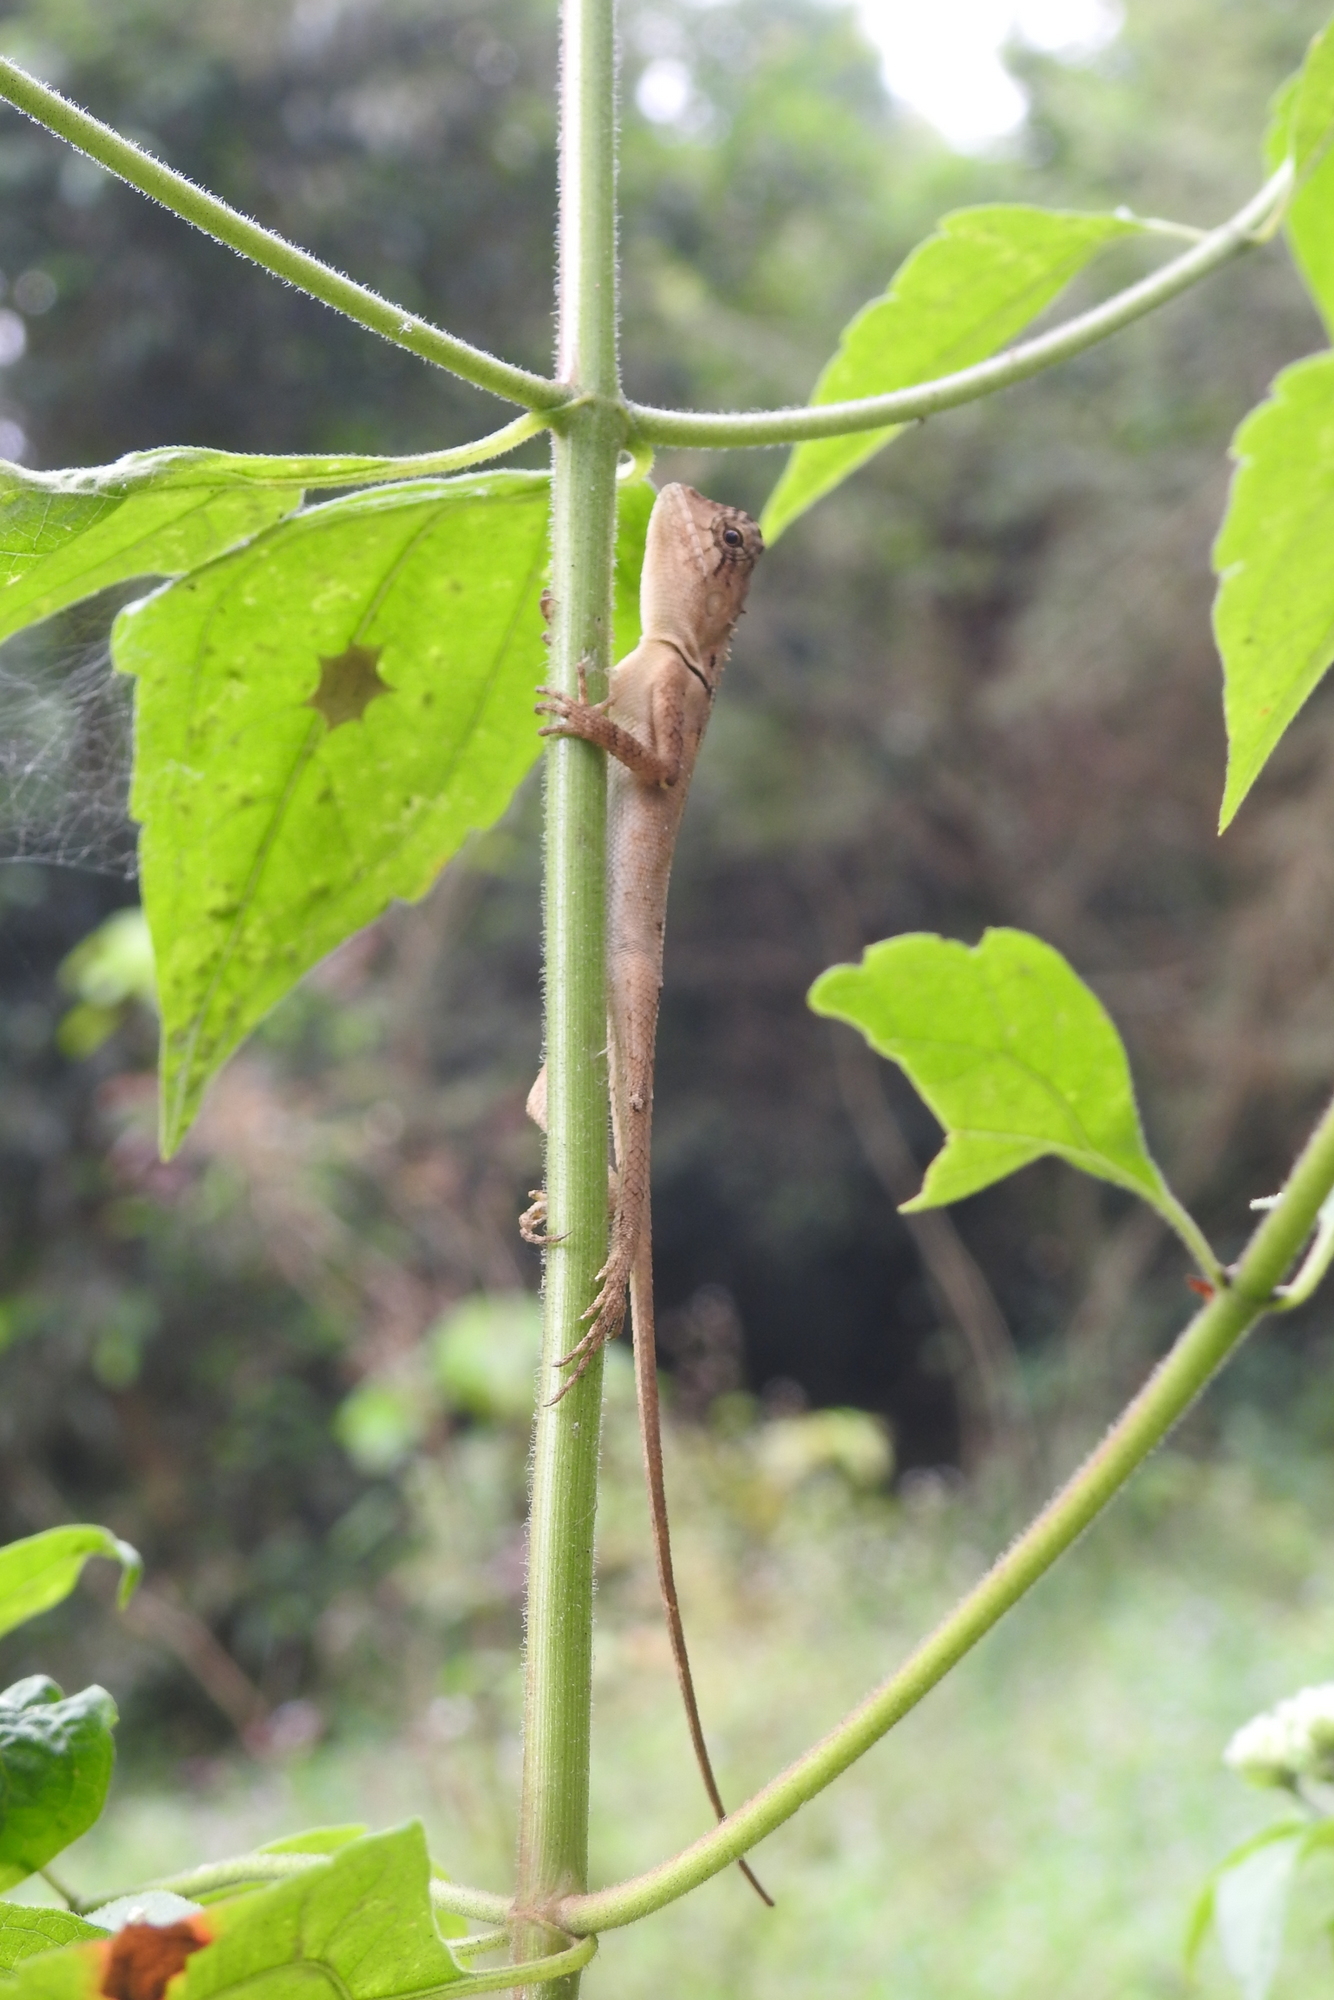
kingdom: Animalia
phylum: Chordata
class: Squamata
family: Agamidae
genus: Monilesaurus
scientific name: Monilesaurus rouxii
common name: Roux's forest lizard
